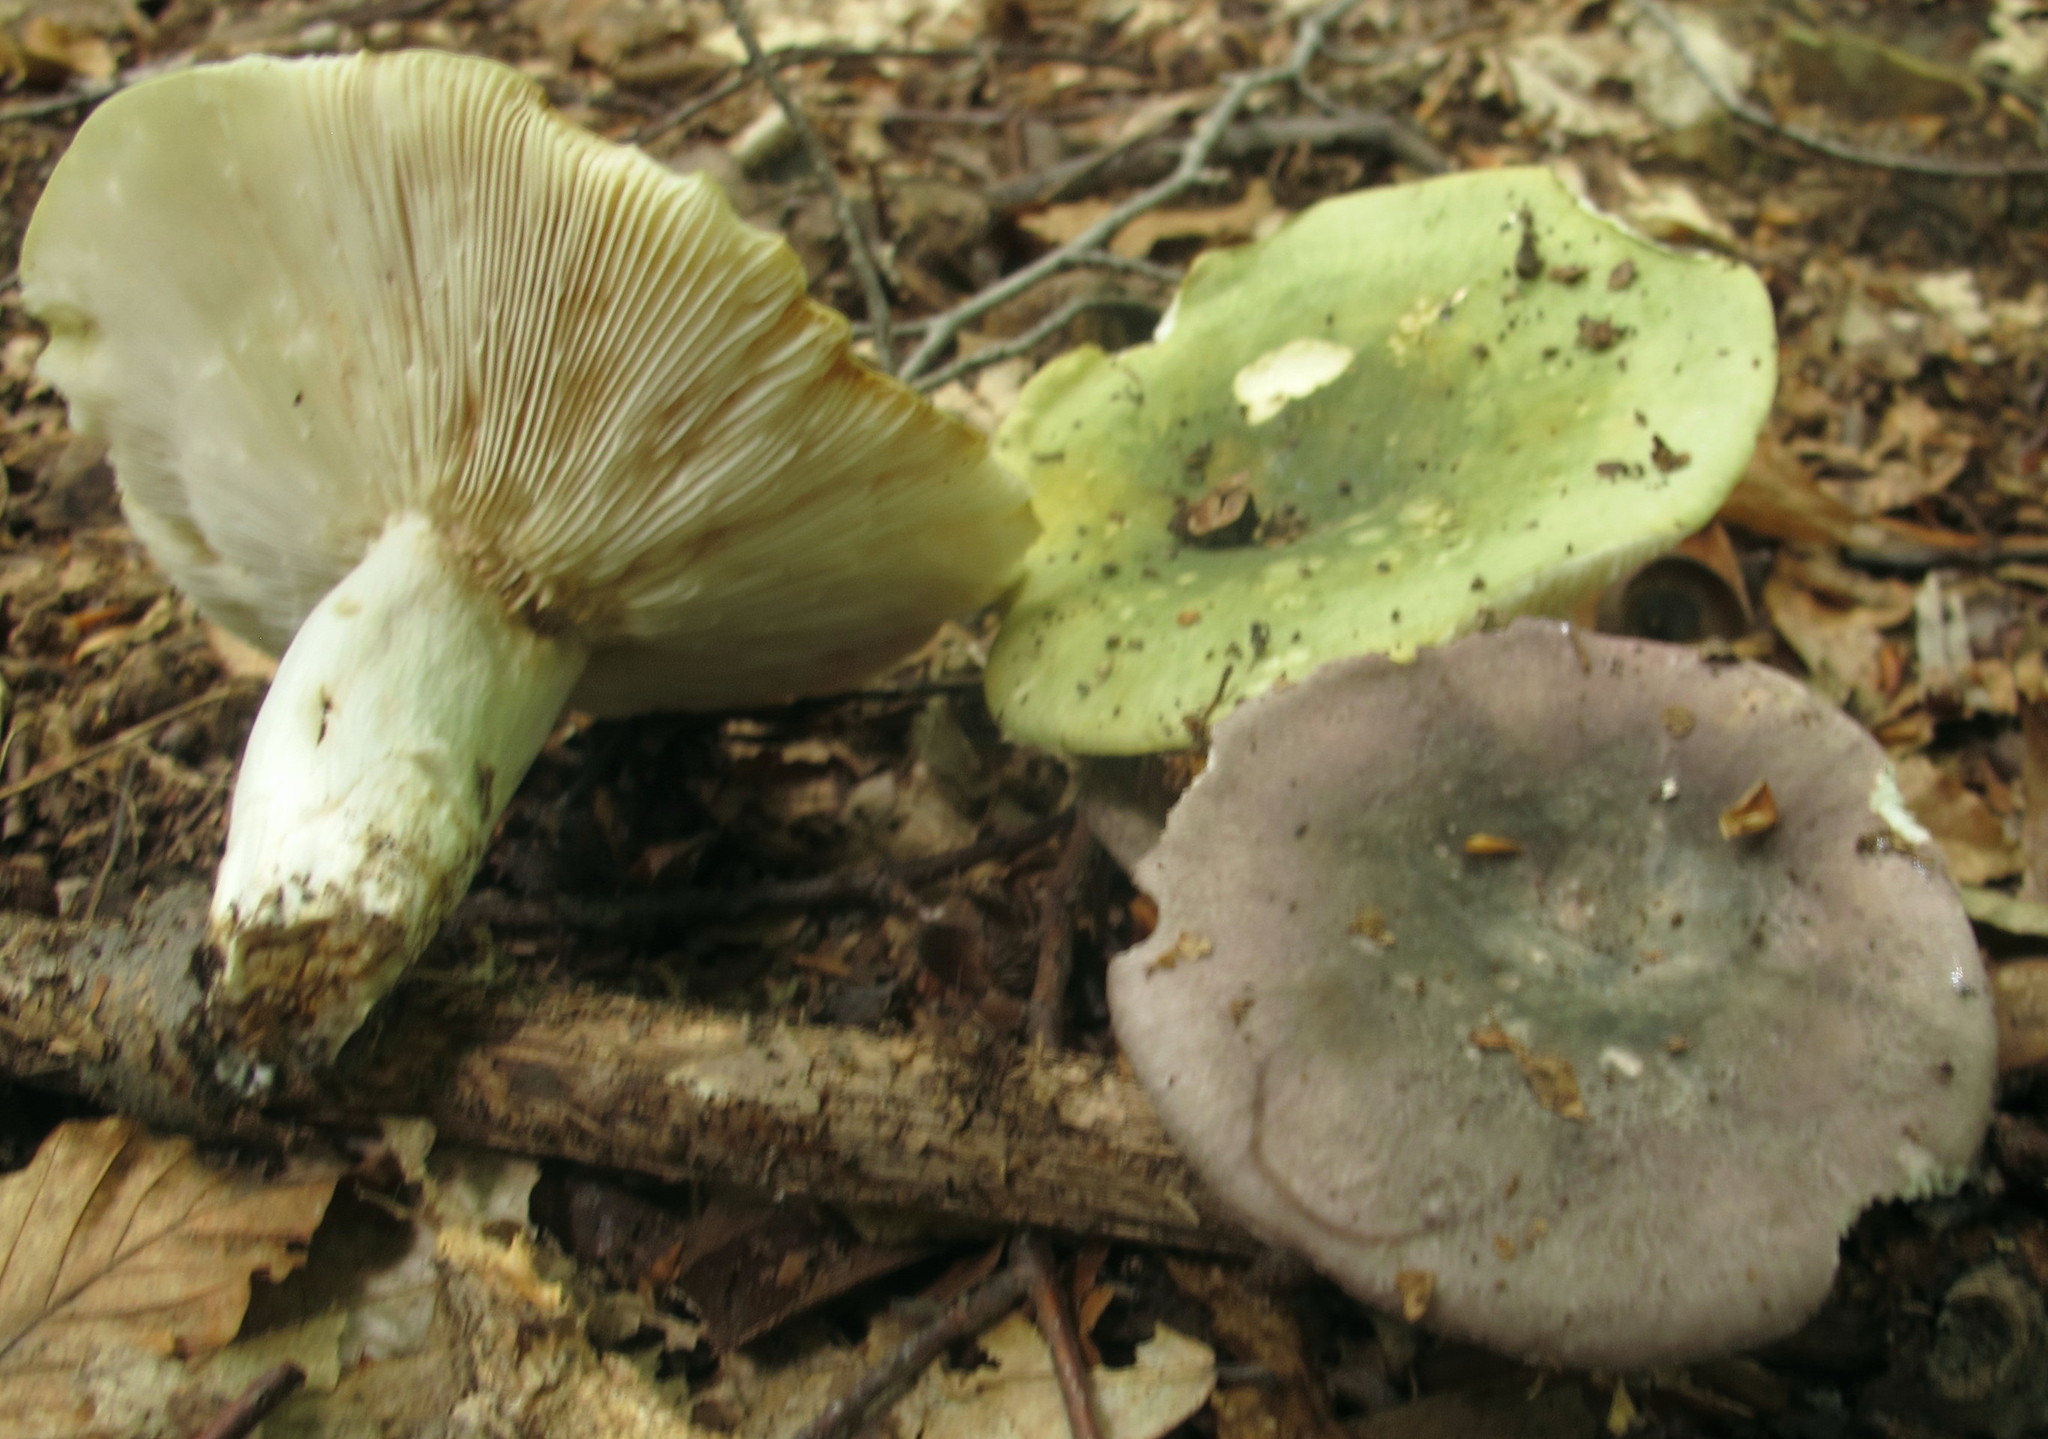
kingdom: Fungi
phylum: Basidiomycota
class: Agaricomycetes
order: Russulales
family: Russulaceae
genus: Russula
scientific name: Russula cyanoxantha
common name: Charcoal burner
